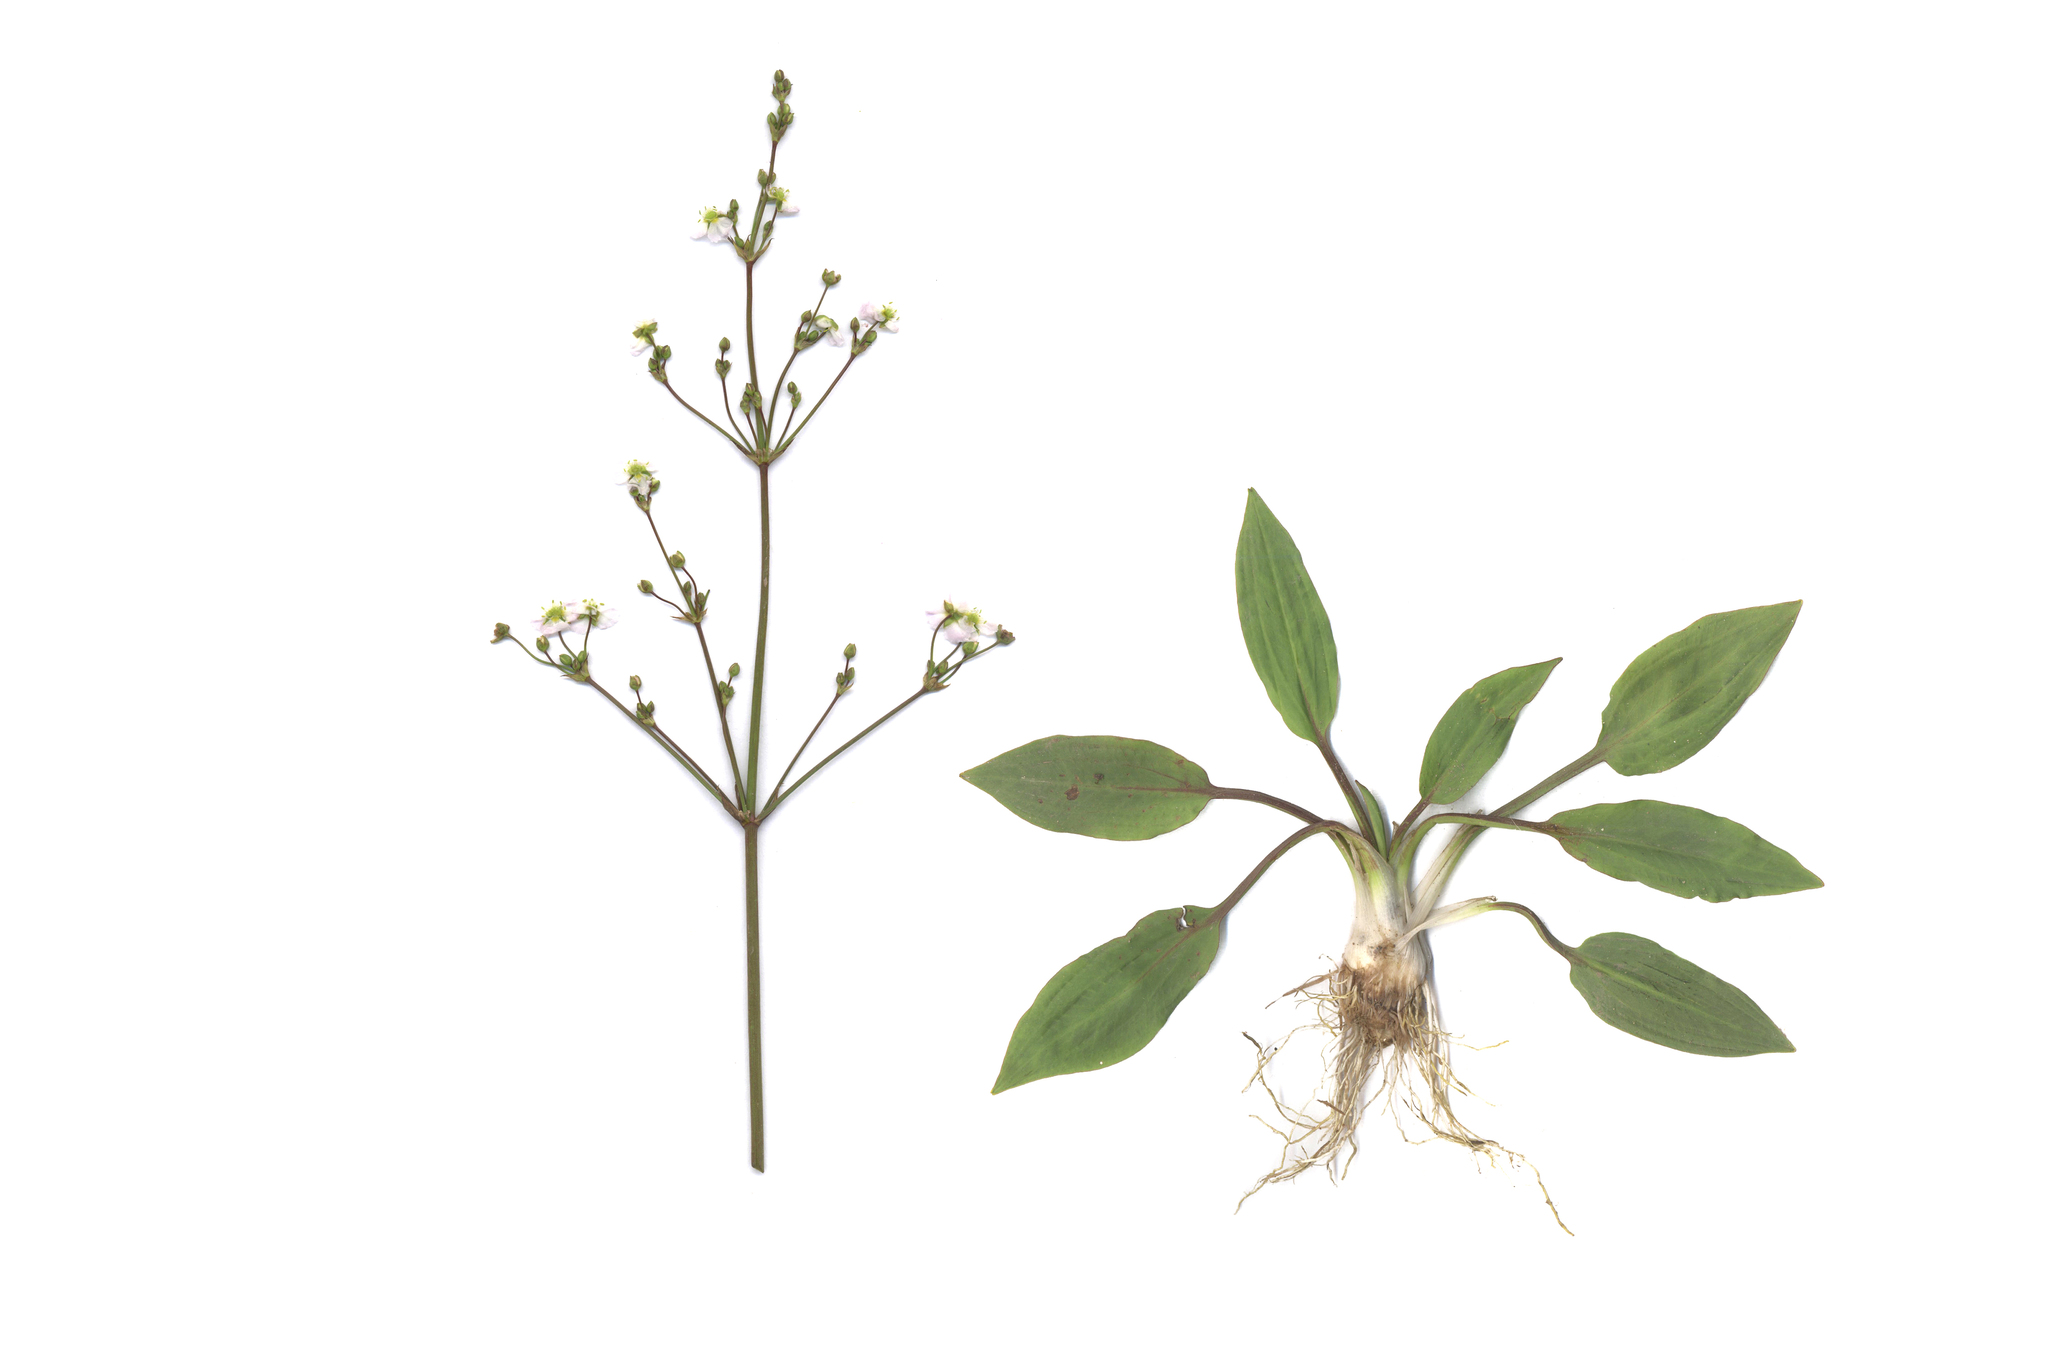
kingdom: Plantae
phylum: Tracheophyta
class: Liliopsida
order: Alismatales
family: Alismataceae
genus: Alisma
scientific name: Alisma plantago-aquatica
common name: Water-plantain
